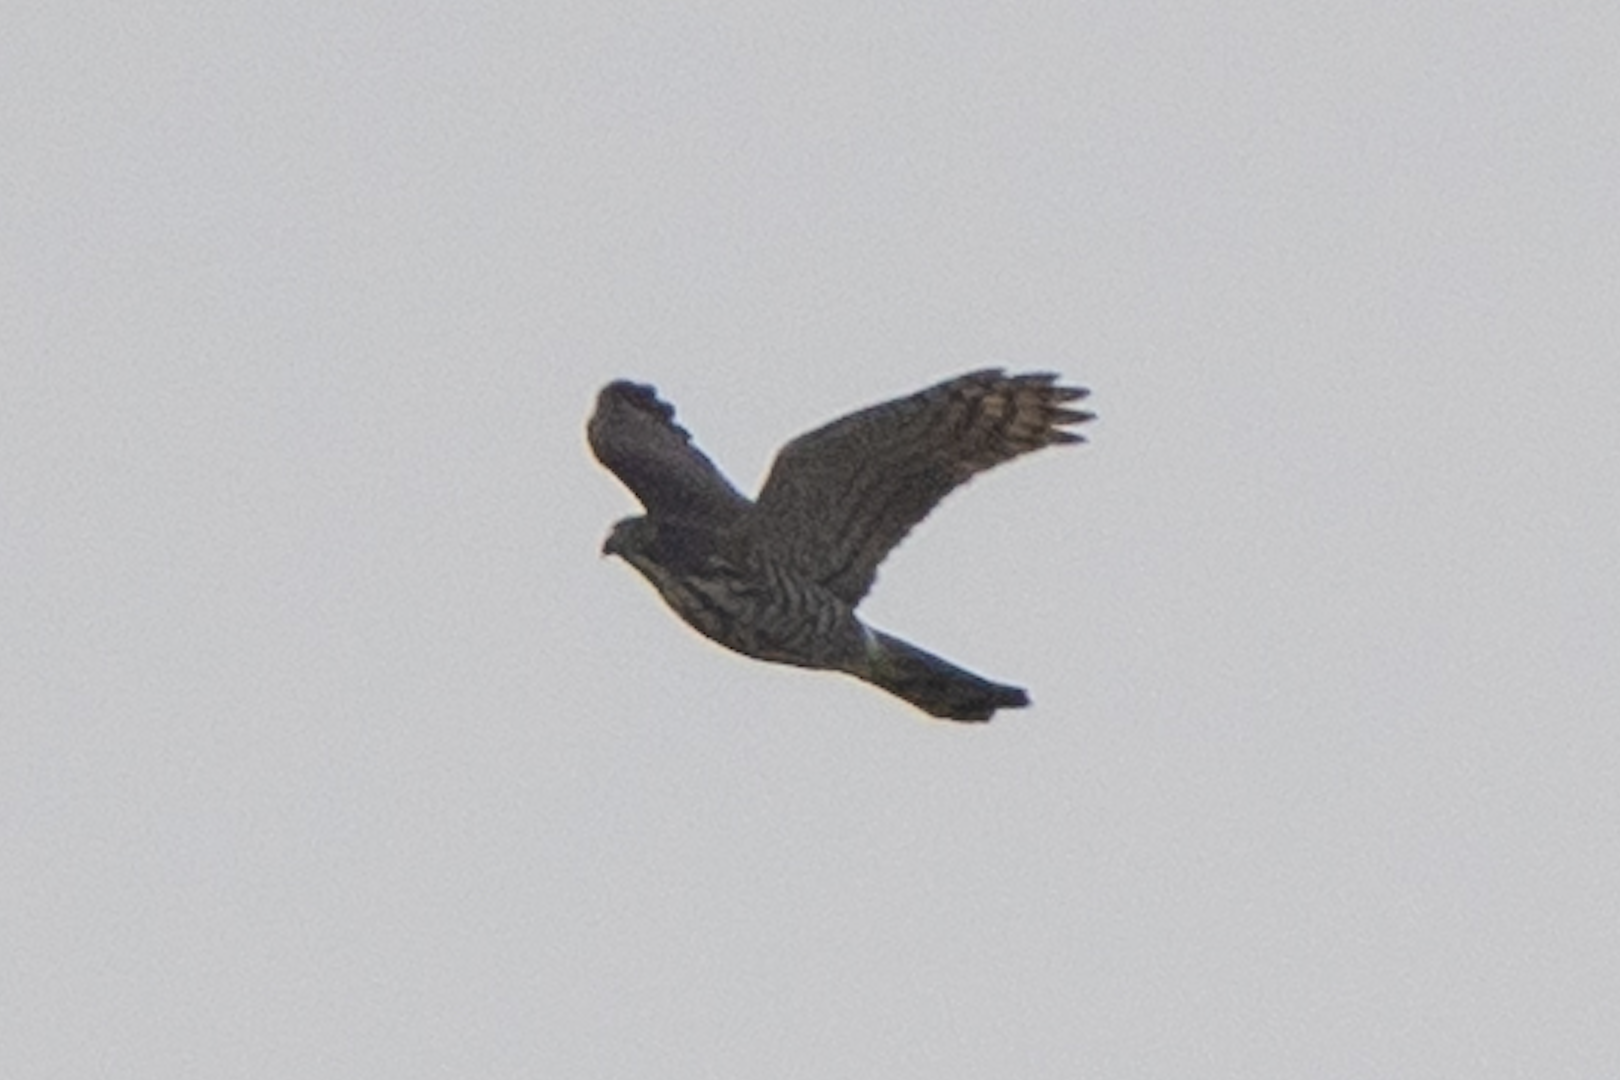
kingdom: Animalia
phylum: Chordata
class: Aves
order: Accipitriformes
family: Accipitridae
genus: Accipiter
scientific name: Accipiter trivirgatus
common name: Crested goshawk
